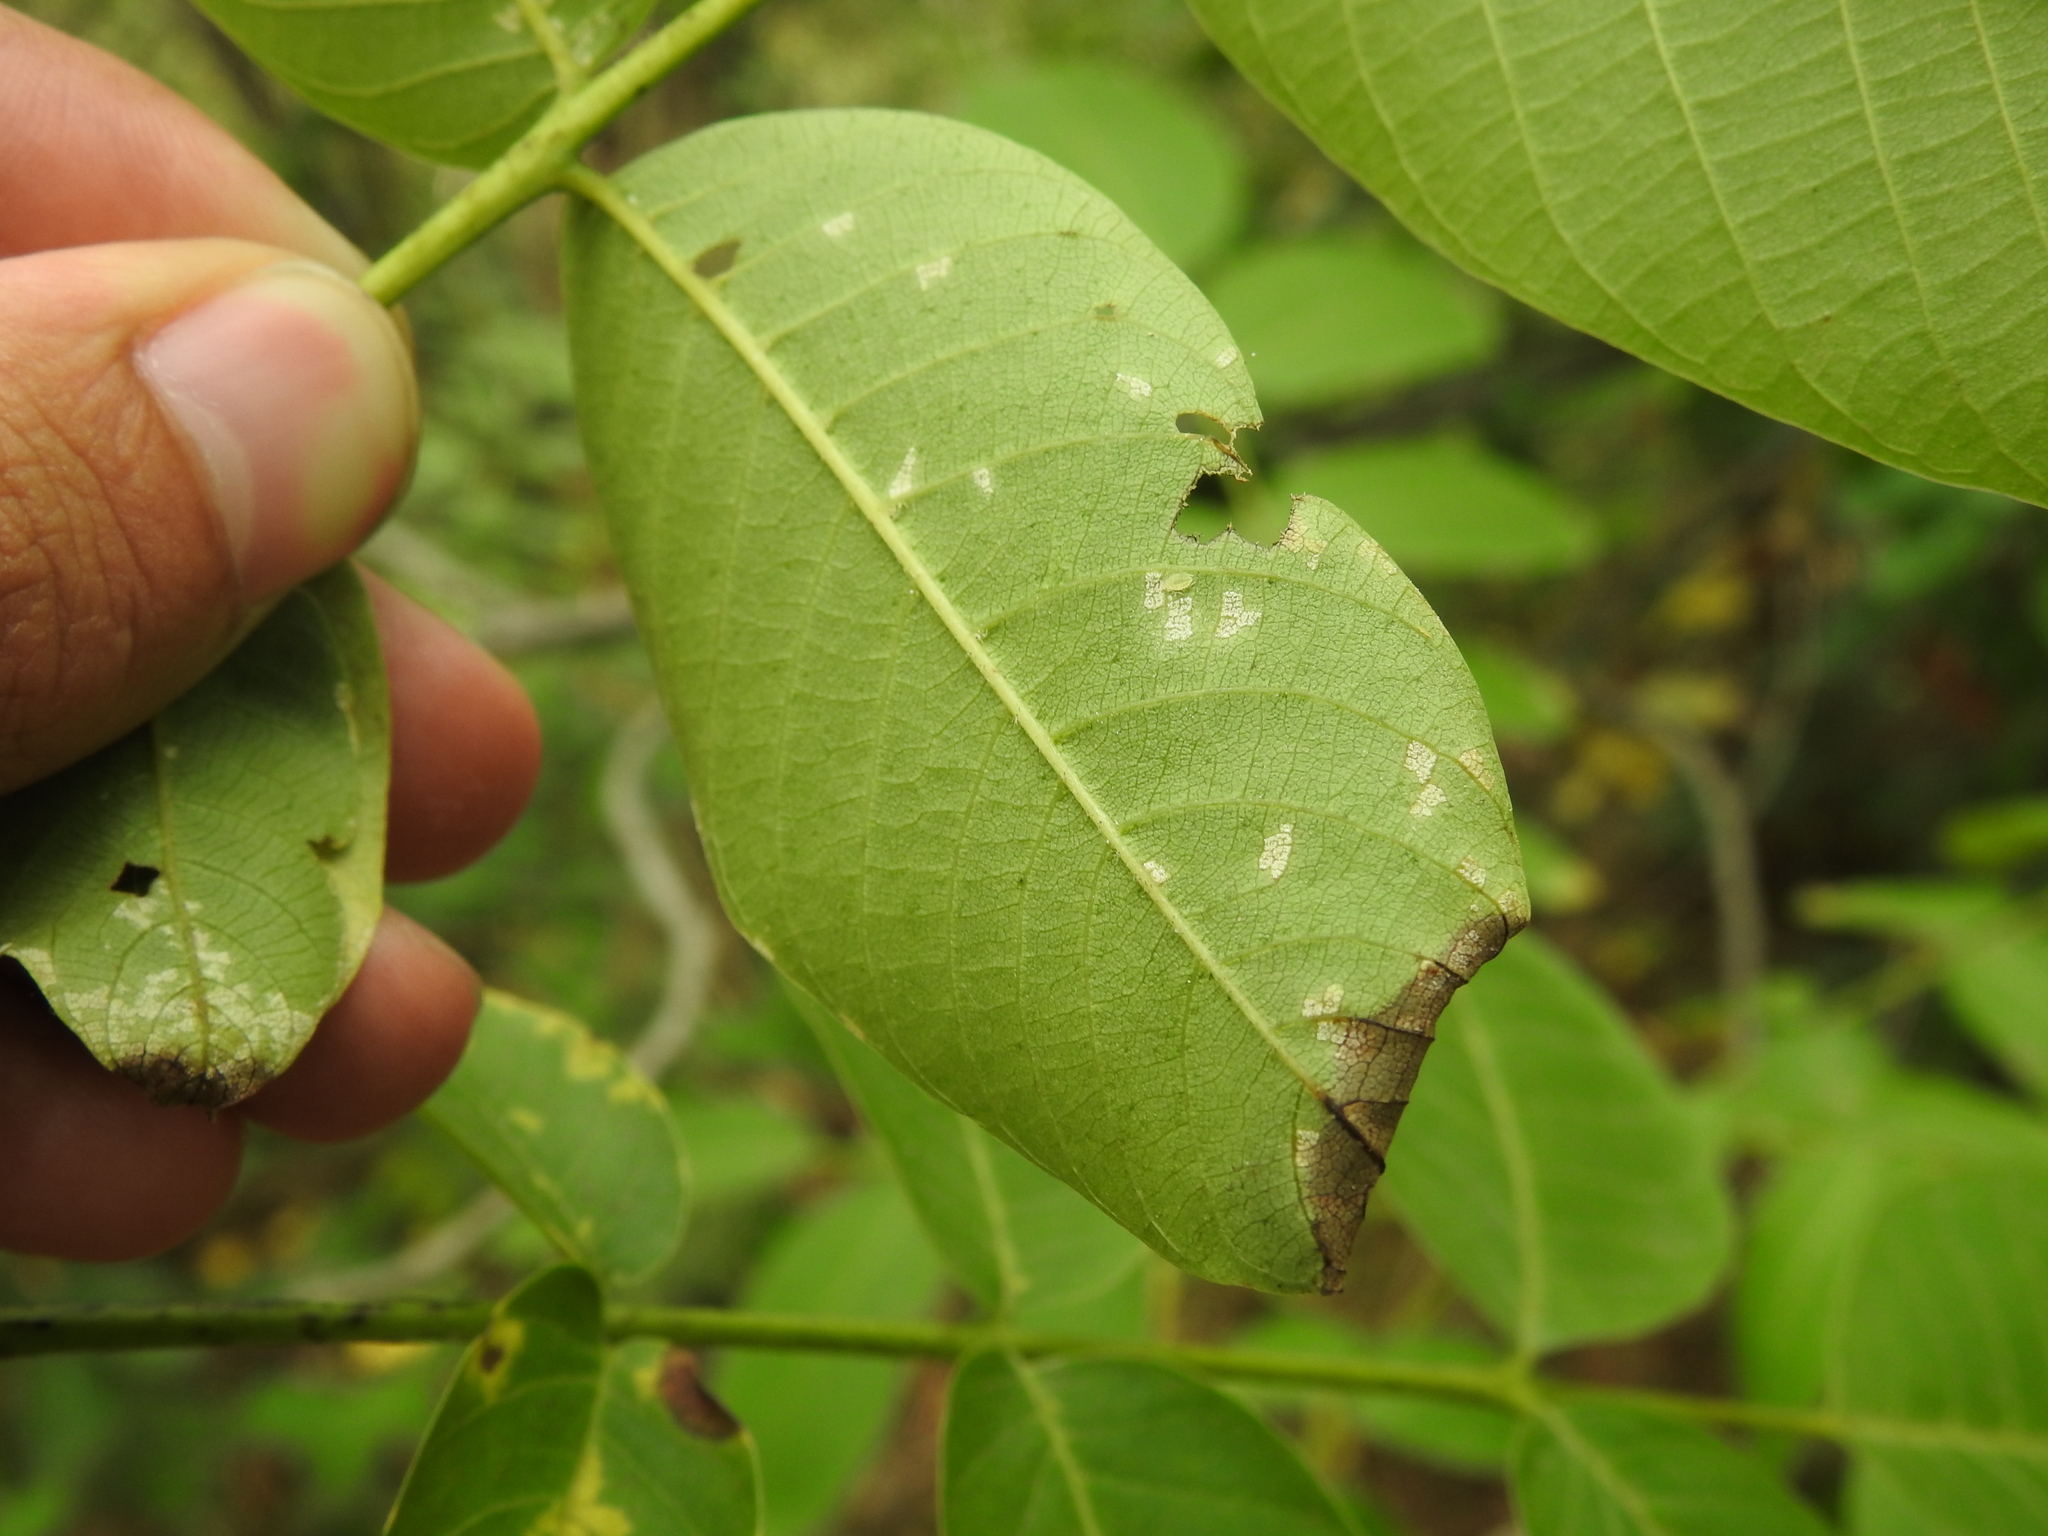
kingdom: Fungi
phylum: Basidiomycota
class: Exobasidiomycetes
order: Microstromatales
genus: Pseudomicrostroma
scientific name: Pseudomicrostroma juglandis
